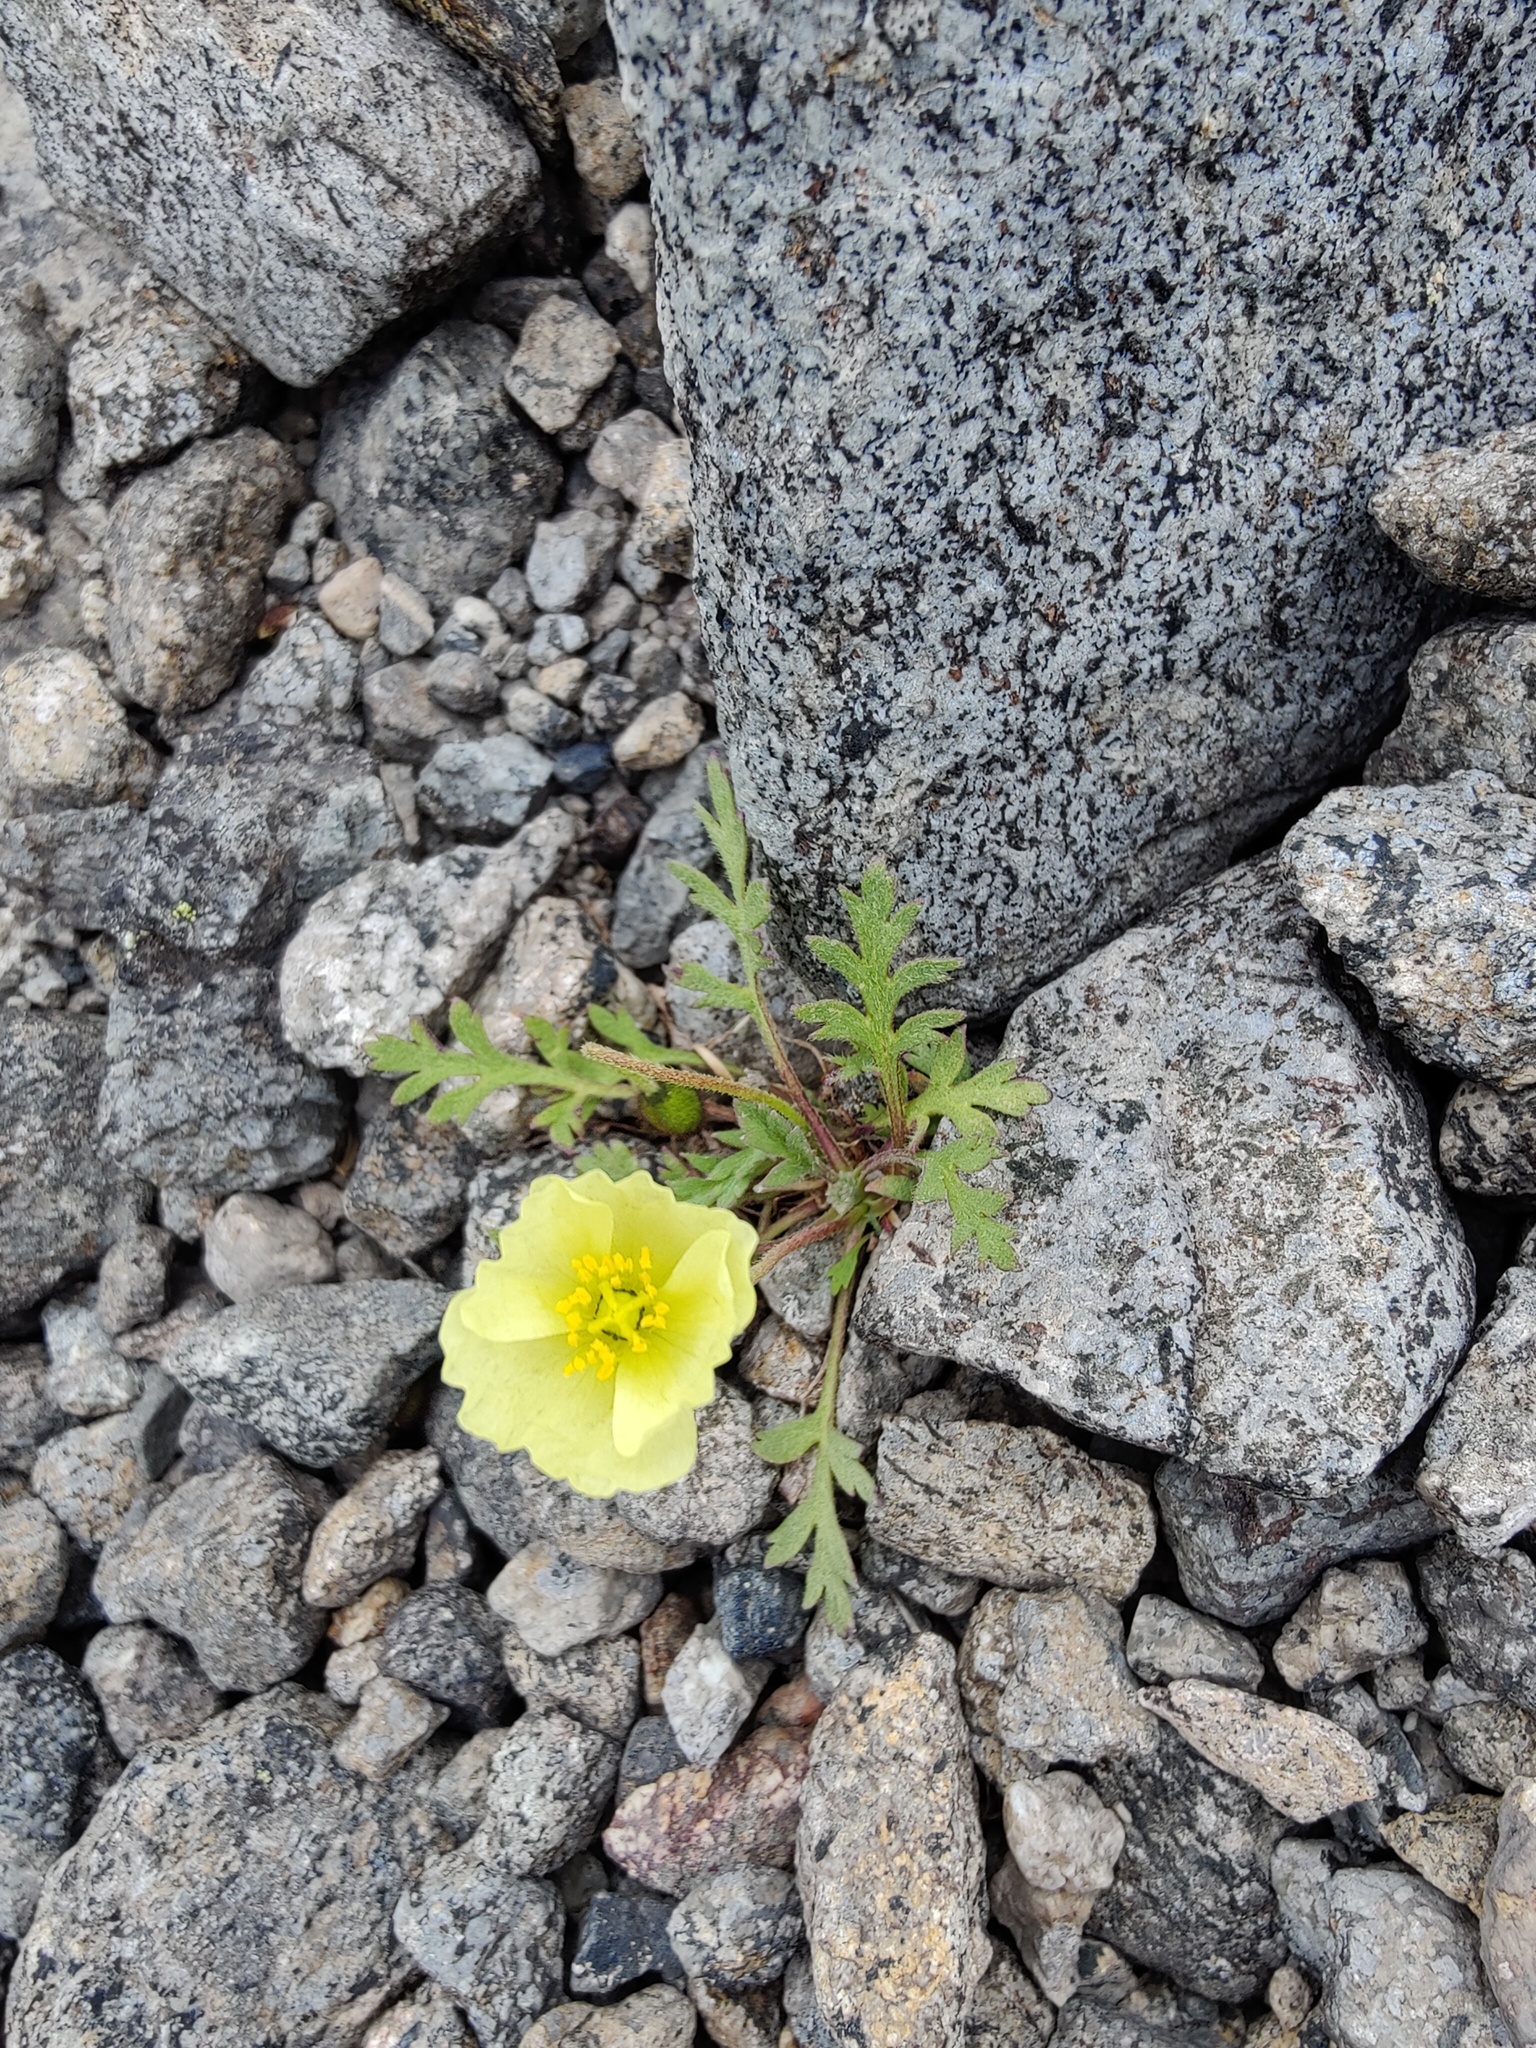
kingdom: Plantae
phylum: Tracheophyta
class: Magnoliopsida
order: Ranunculales
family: Papaveraceae
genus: Papaver
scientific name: Papaver lapponicum
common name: Lapland poppy
